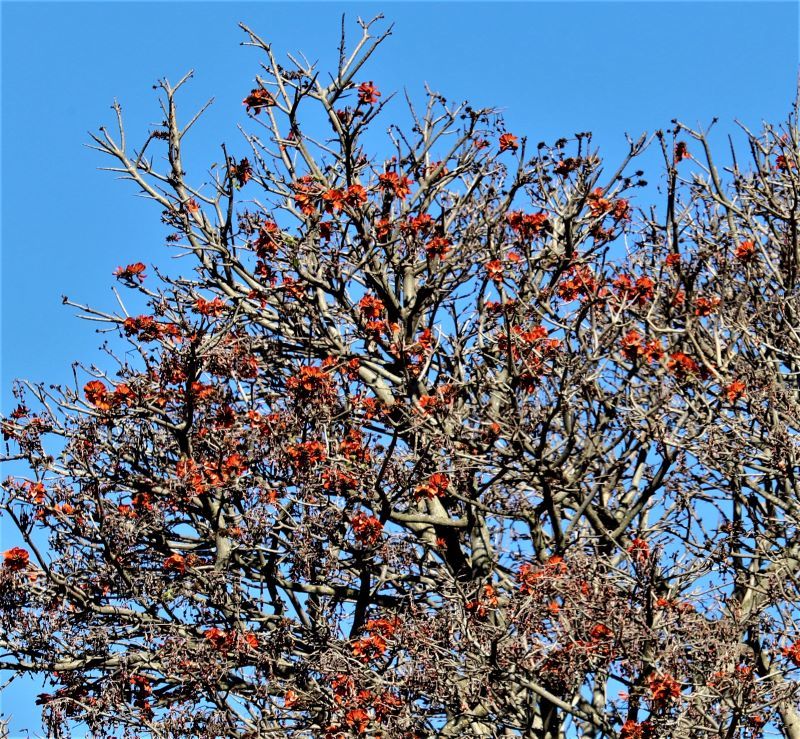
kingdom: Plantae
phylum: Tracheophyta
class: Magnoliopsida
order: Fabales
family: Fabaceae
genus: Erythrina
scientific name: Erythrina caffra
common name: Coast coral tree
